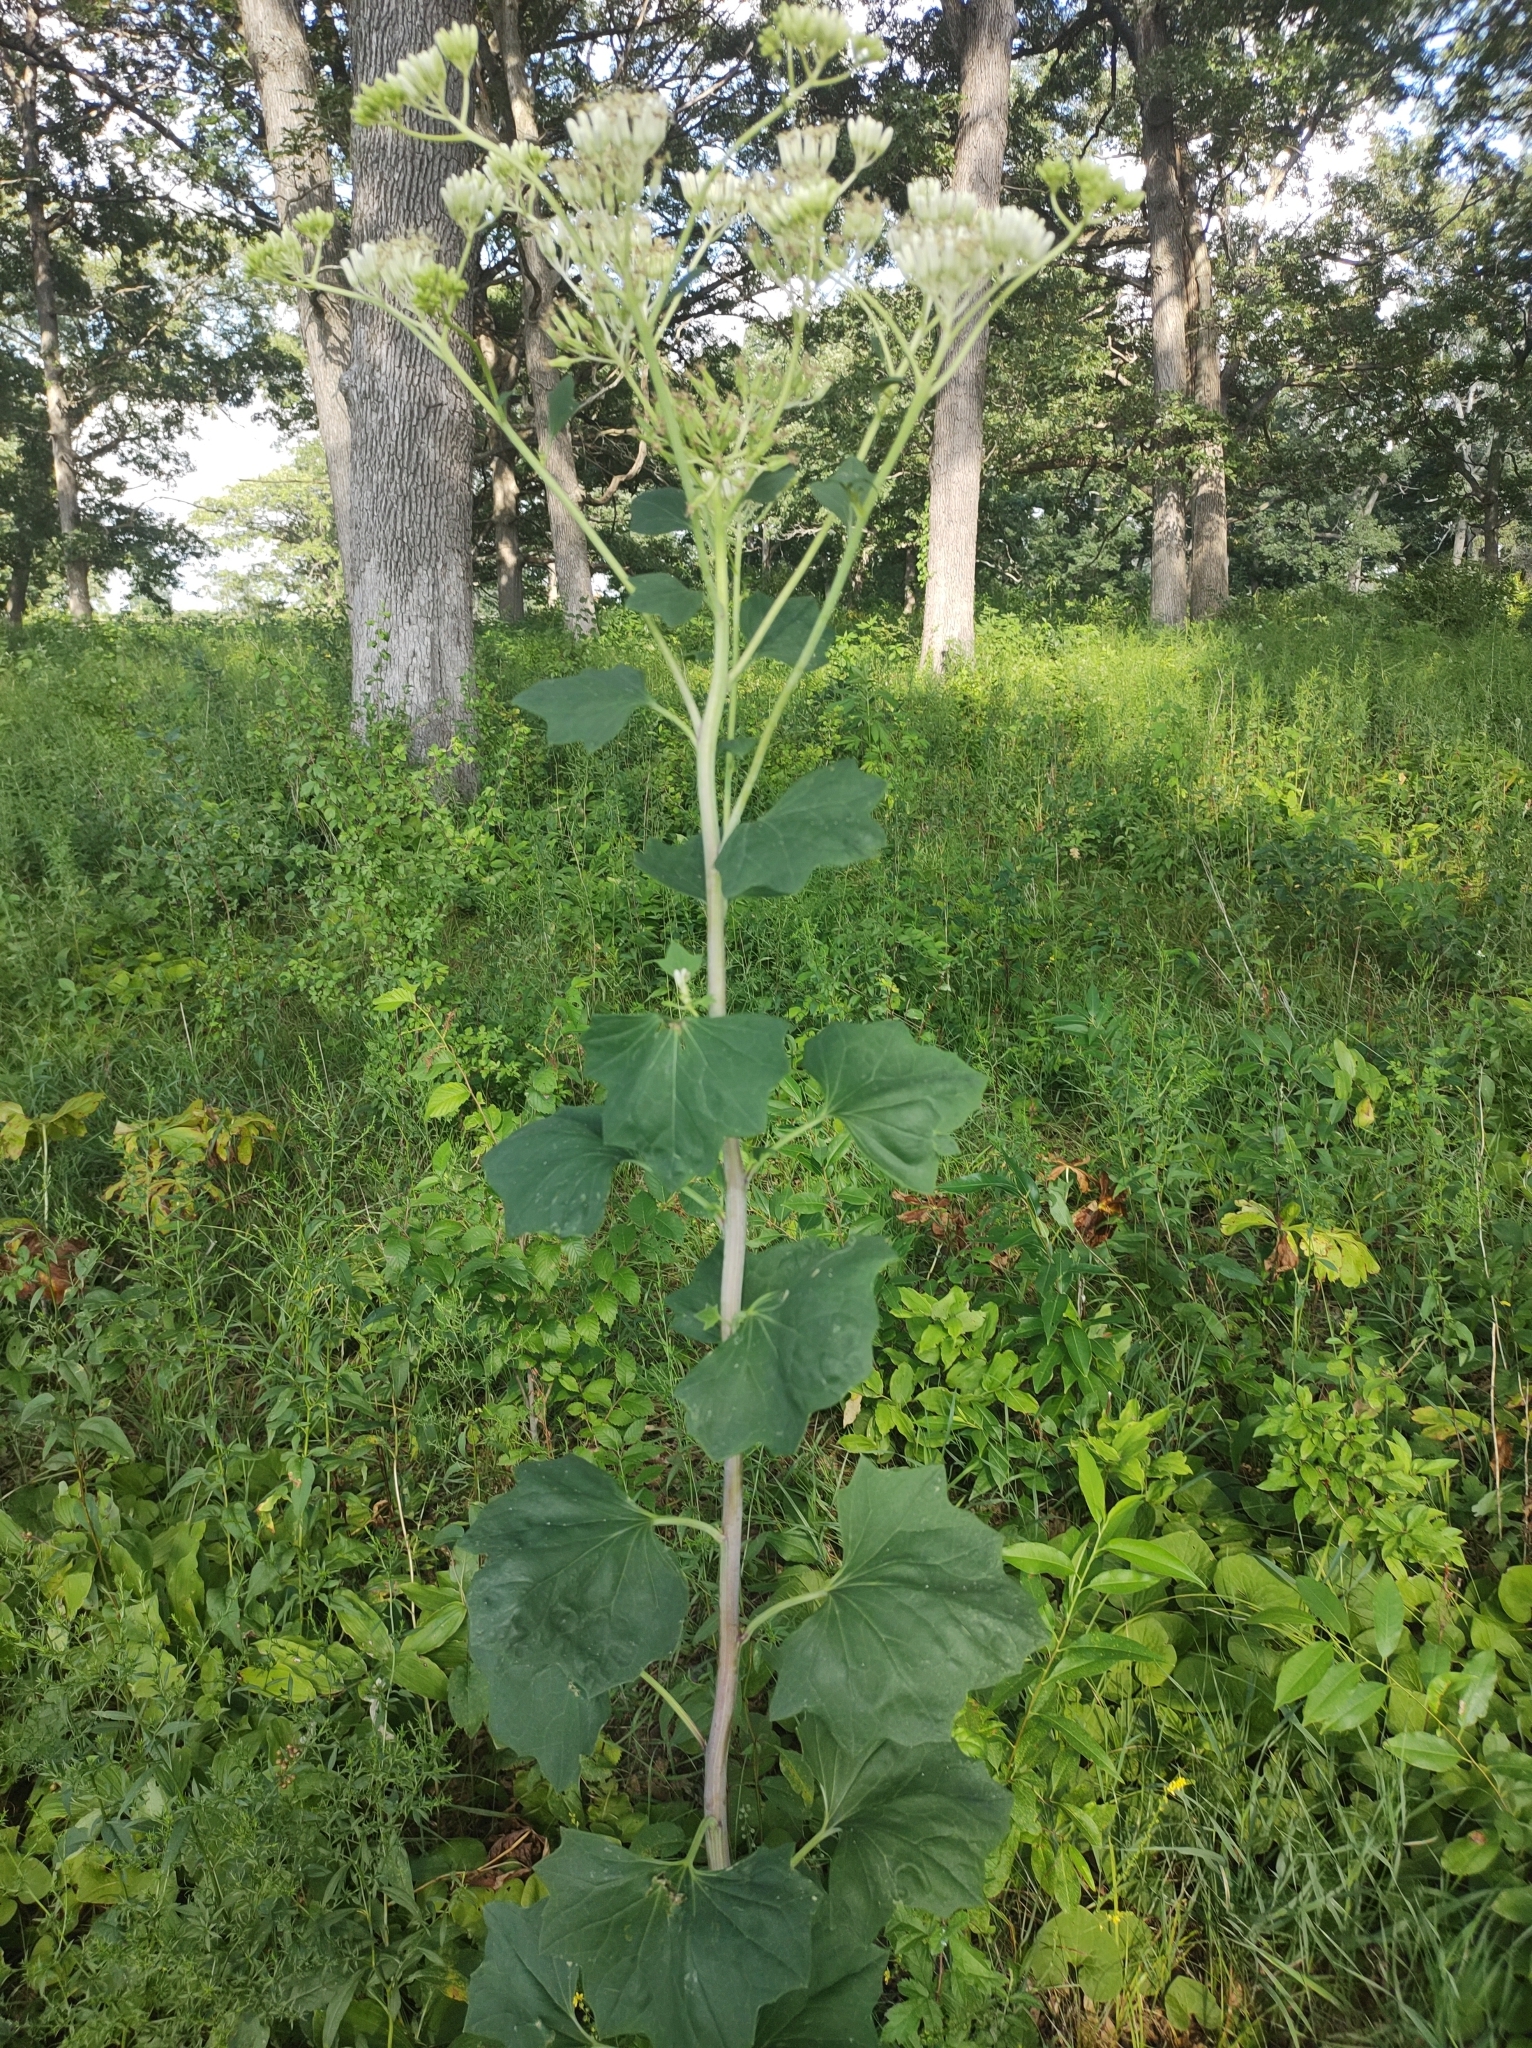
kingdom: Plantae
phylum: Tracheophyta
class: Magnoliopsida
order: Asterales
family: Asteraceae
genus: Arnoglossum
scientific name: Arnoglossum atriplicifolium
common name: Pale indian-plantain
